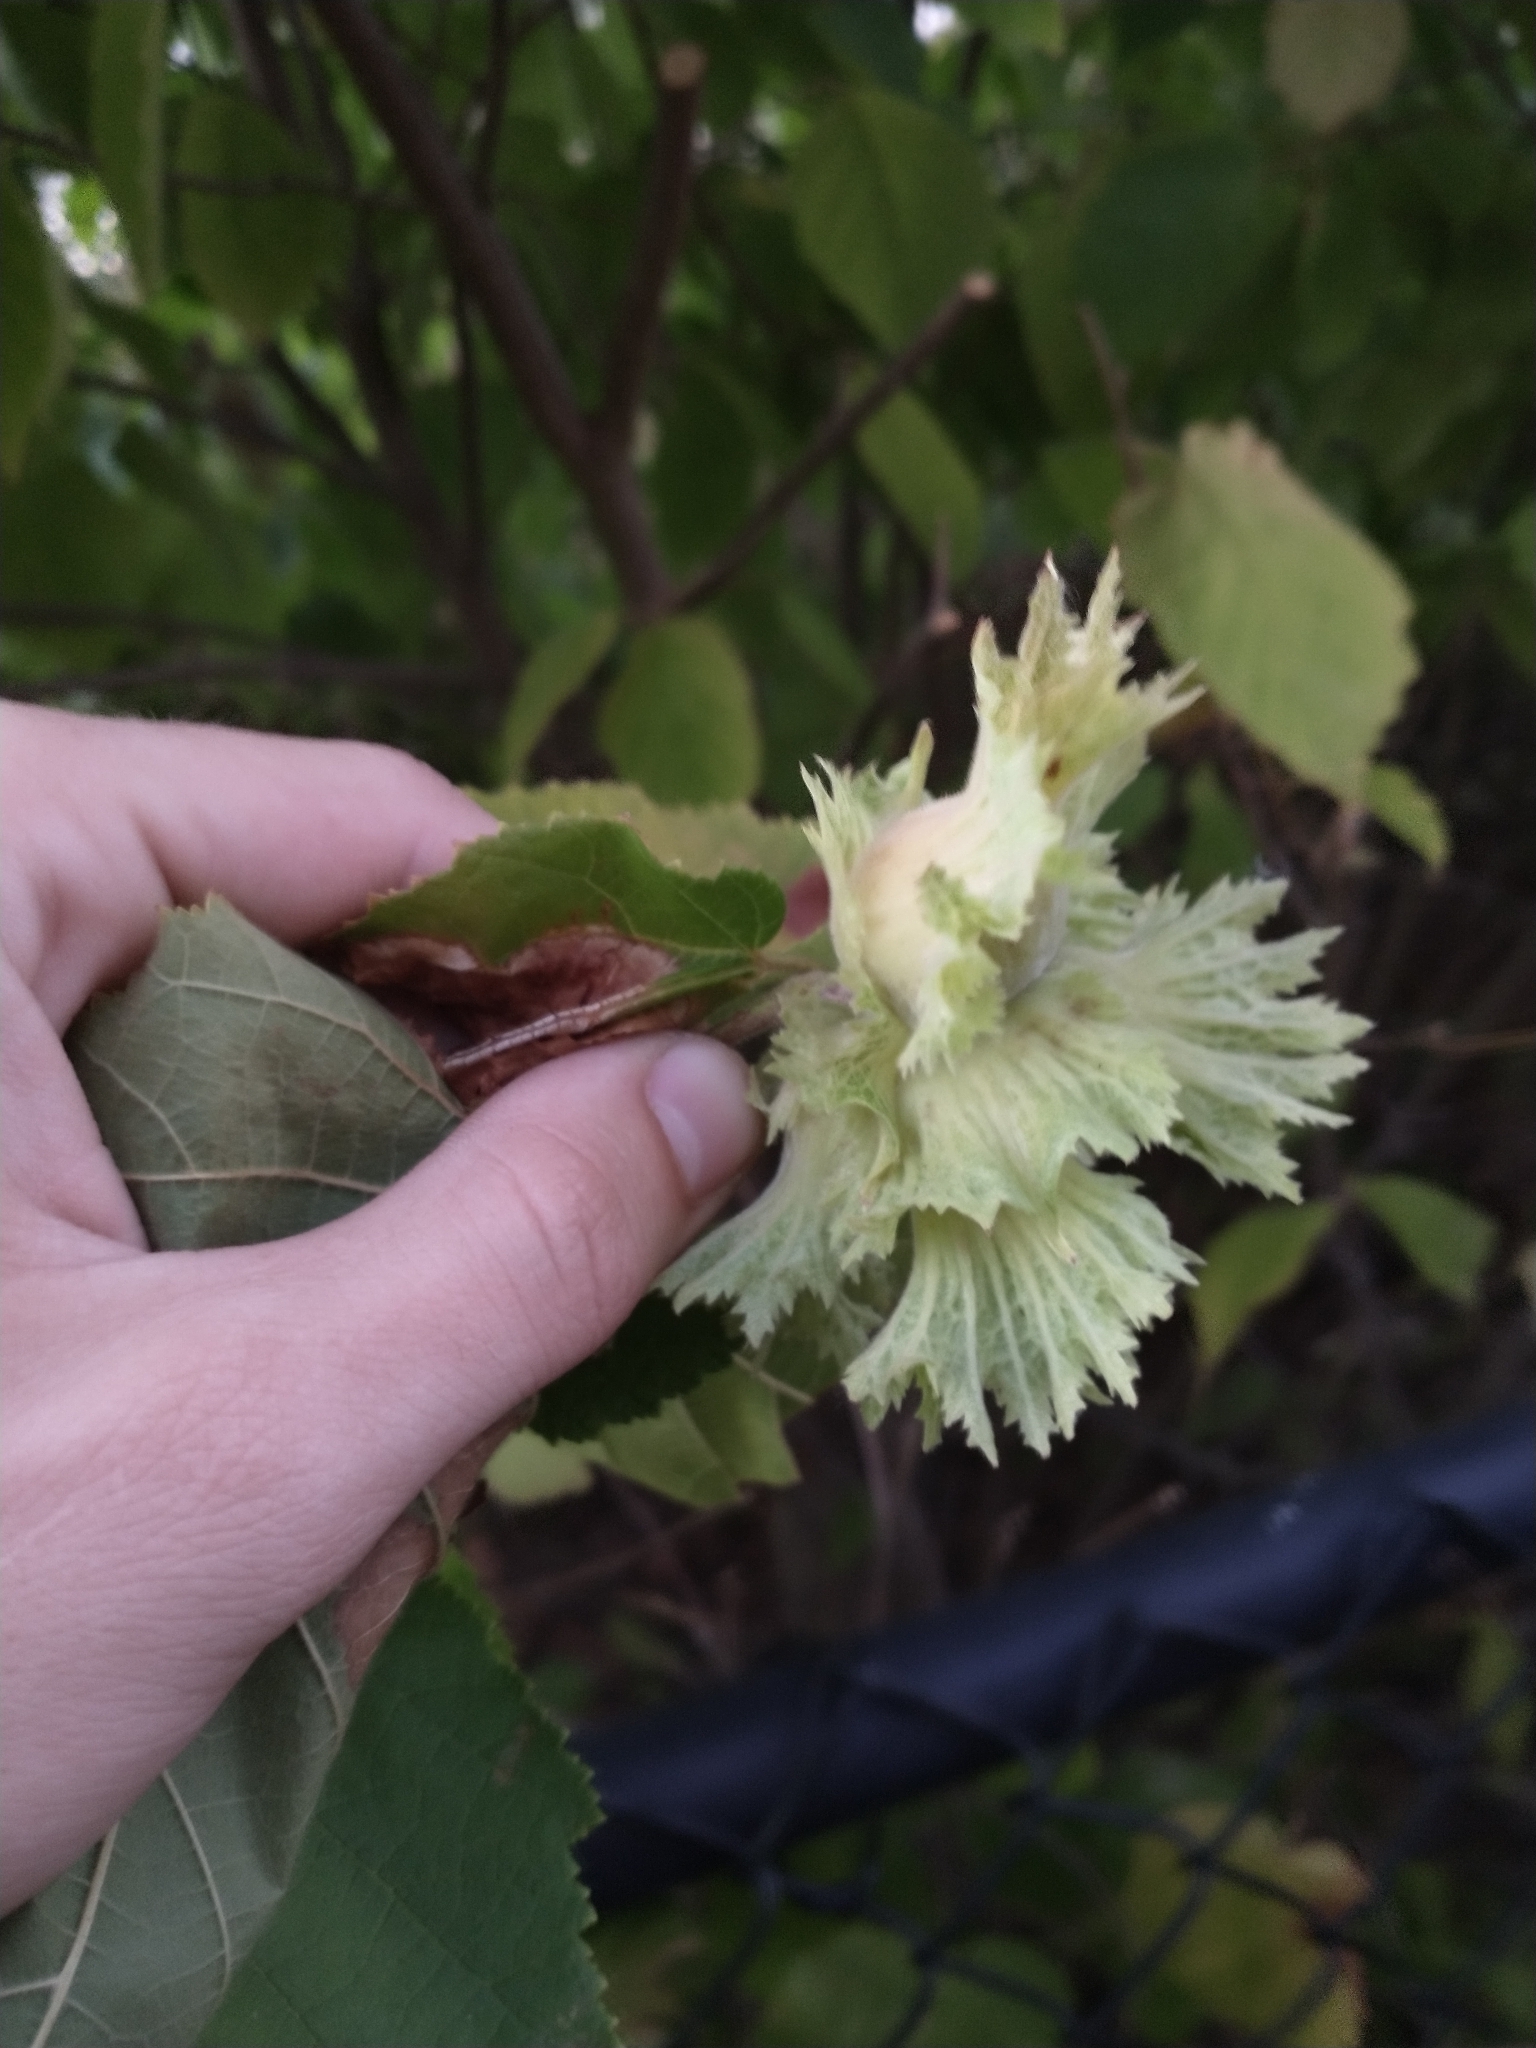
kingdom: Plantae
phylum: Tracheophyta
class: Magnoliopsida
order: Fagales
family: Betulaceae
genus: Corylus
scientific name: Corylus americana
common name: American hazel
